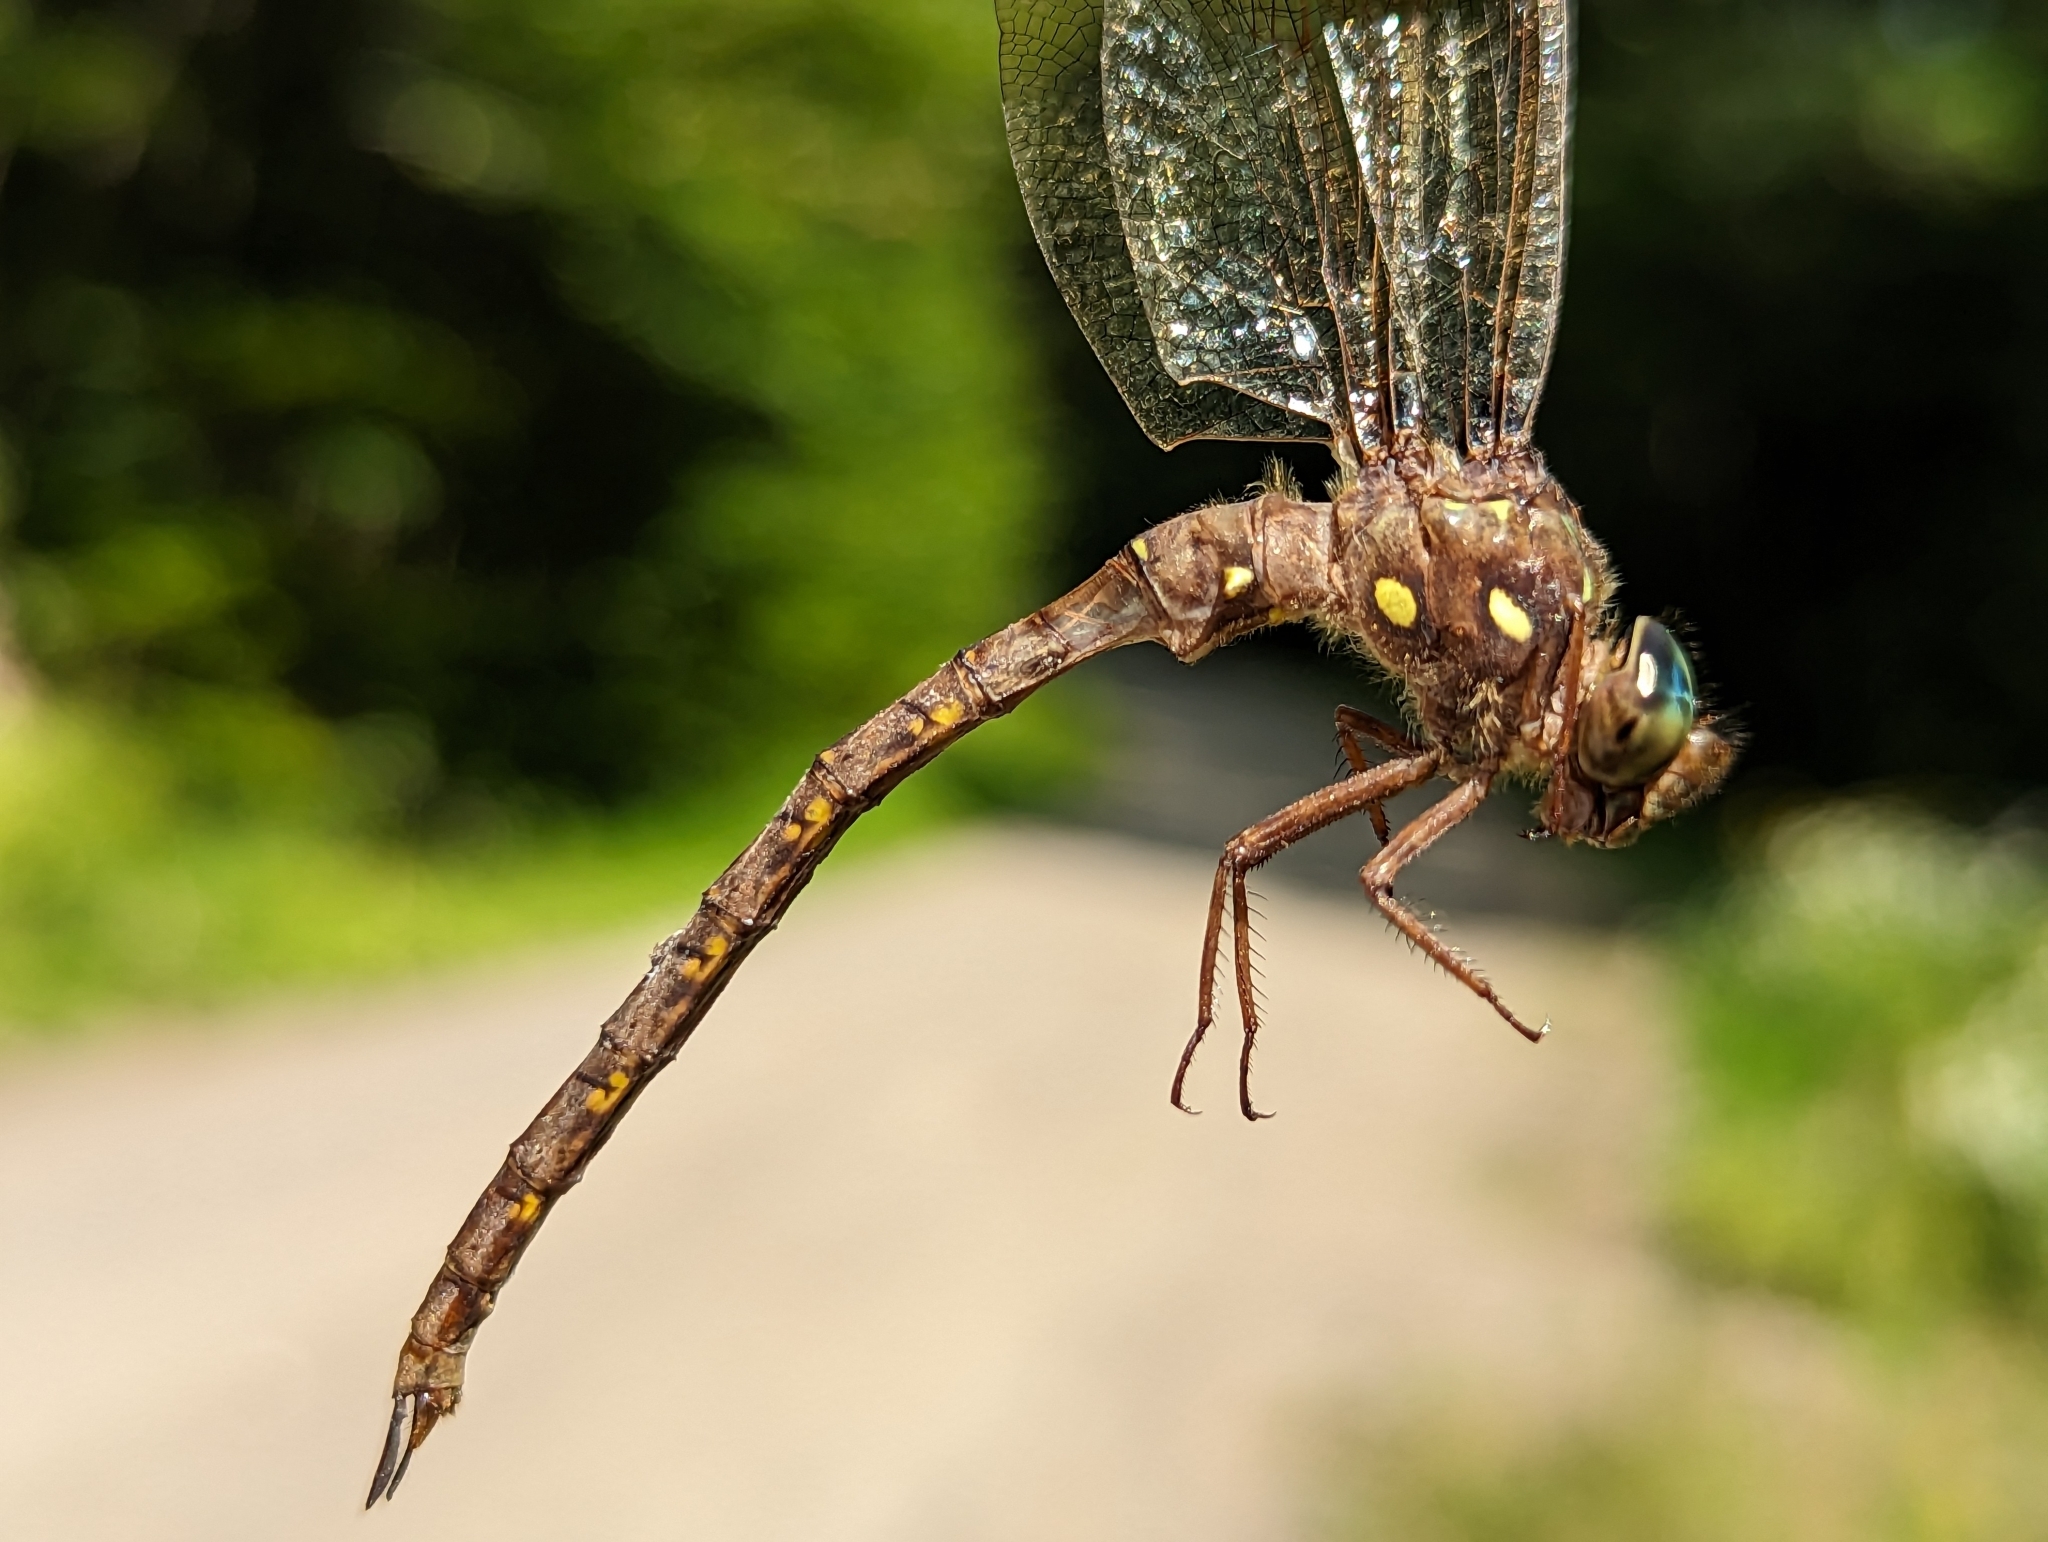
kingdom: Animalia
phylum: Arthropoda
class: Insecta
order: Odonata
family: Aeshnidae
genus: Boyeria
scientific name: Boyeria vinosa
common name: Fawn darner
